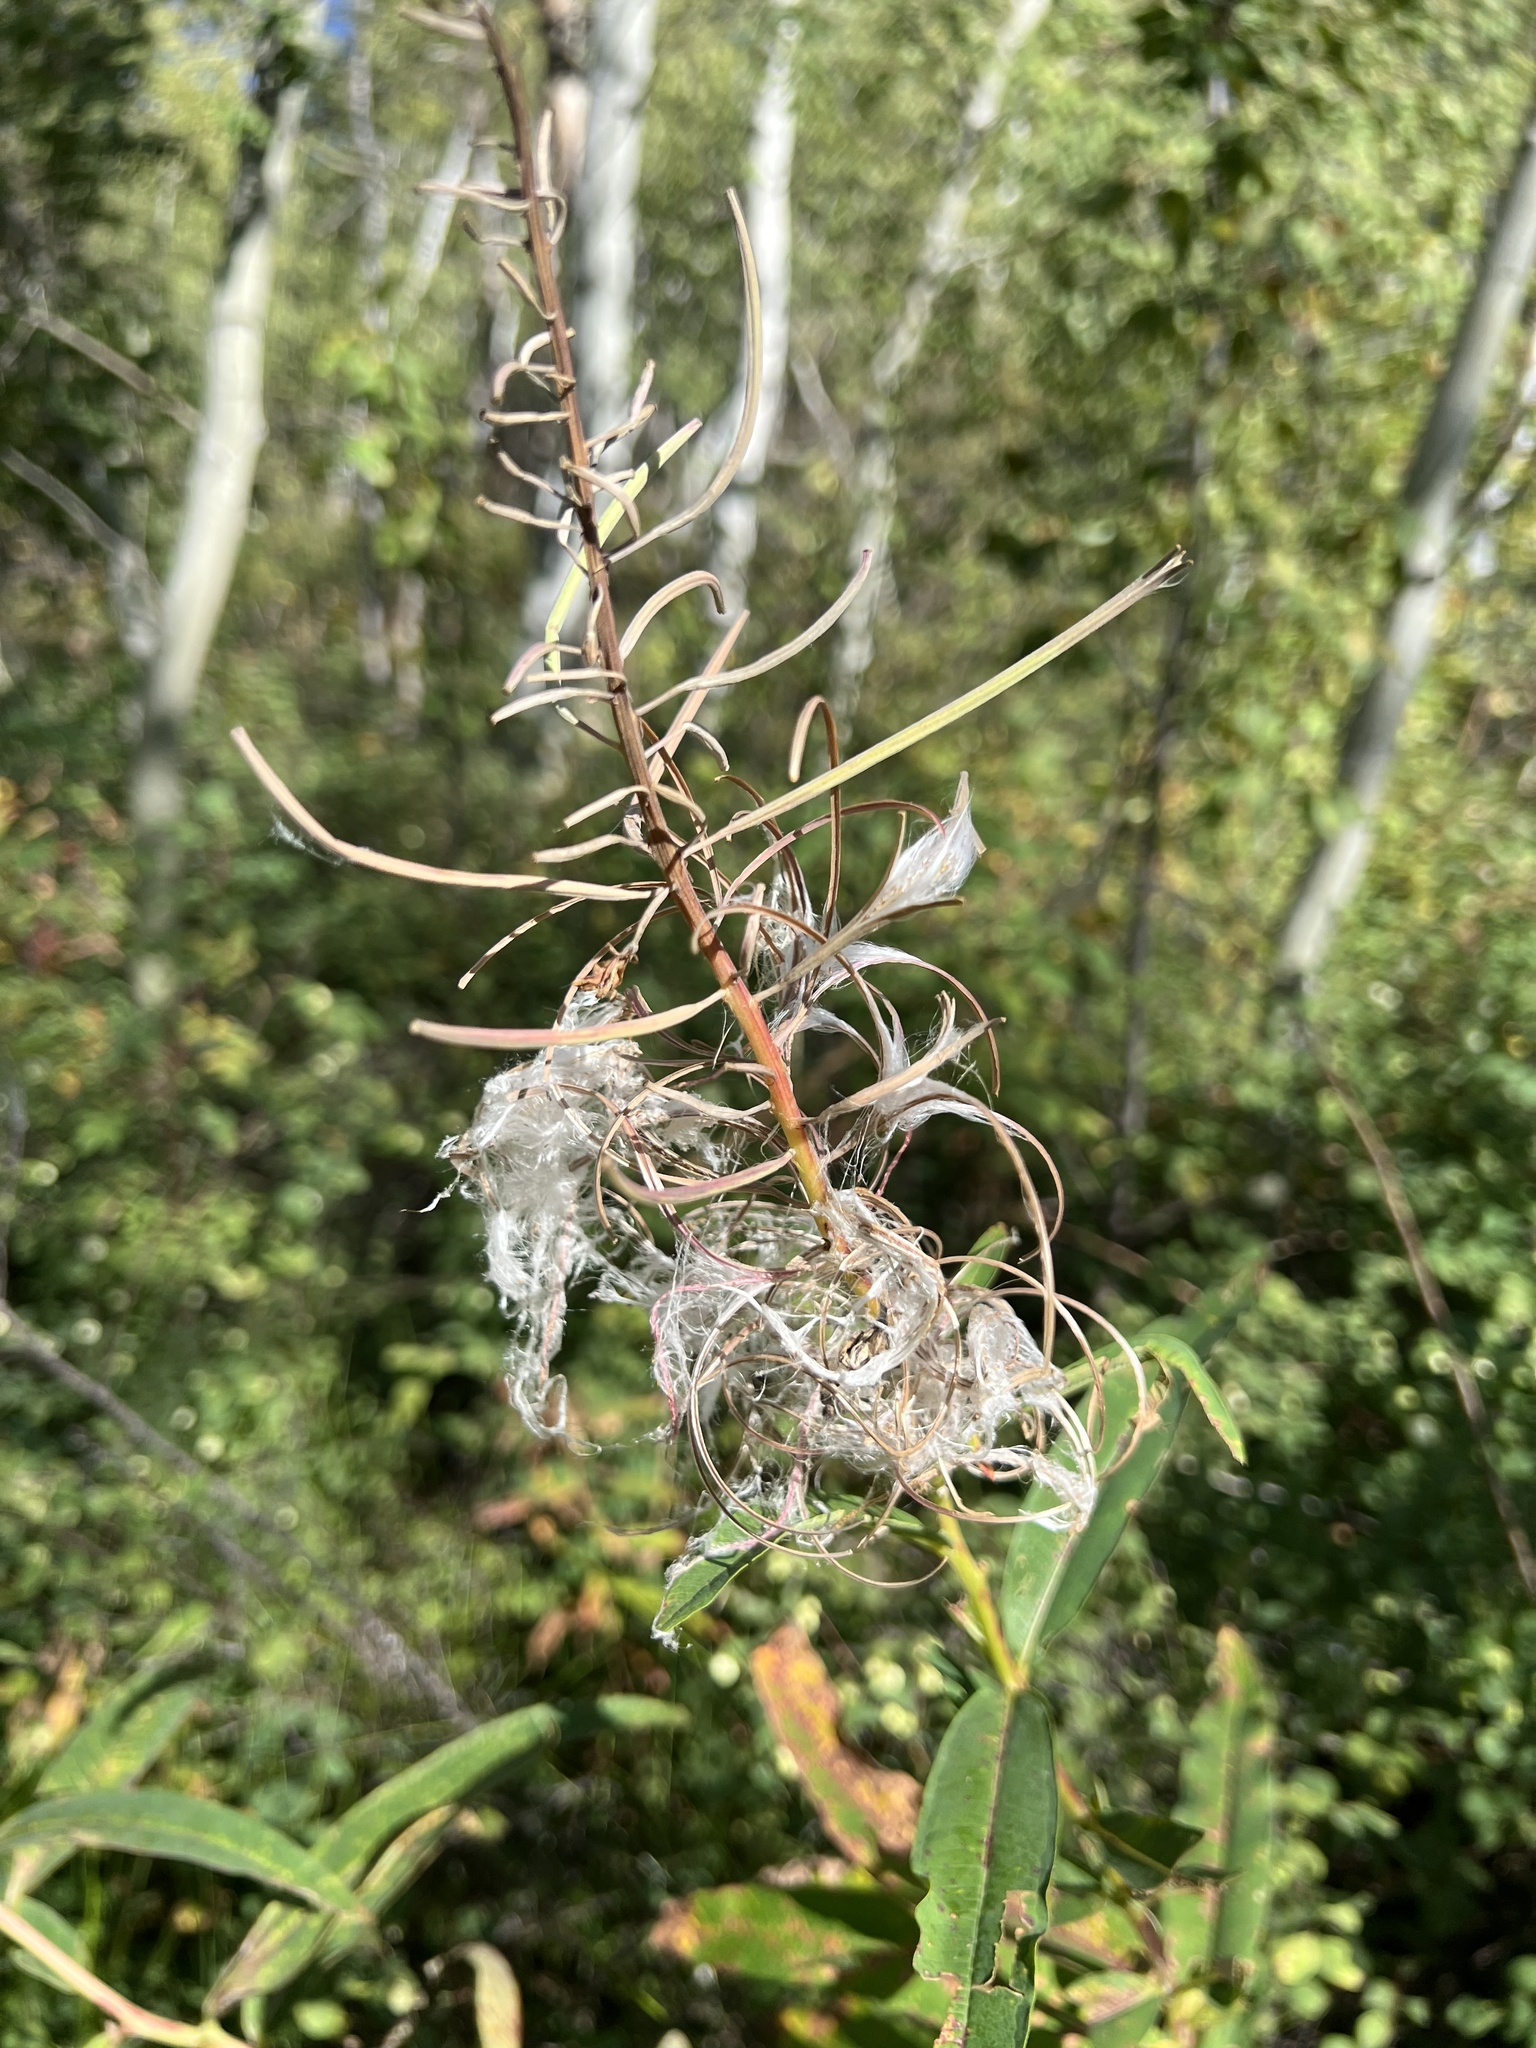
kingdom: Plantae
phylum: Tracheophyta
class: Magnoliopsida
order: Myrtales
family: Onagraceae
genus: Chamaenerion
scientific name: Chamaenerion angustifolium
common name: Fireweed
